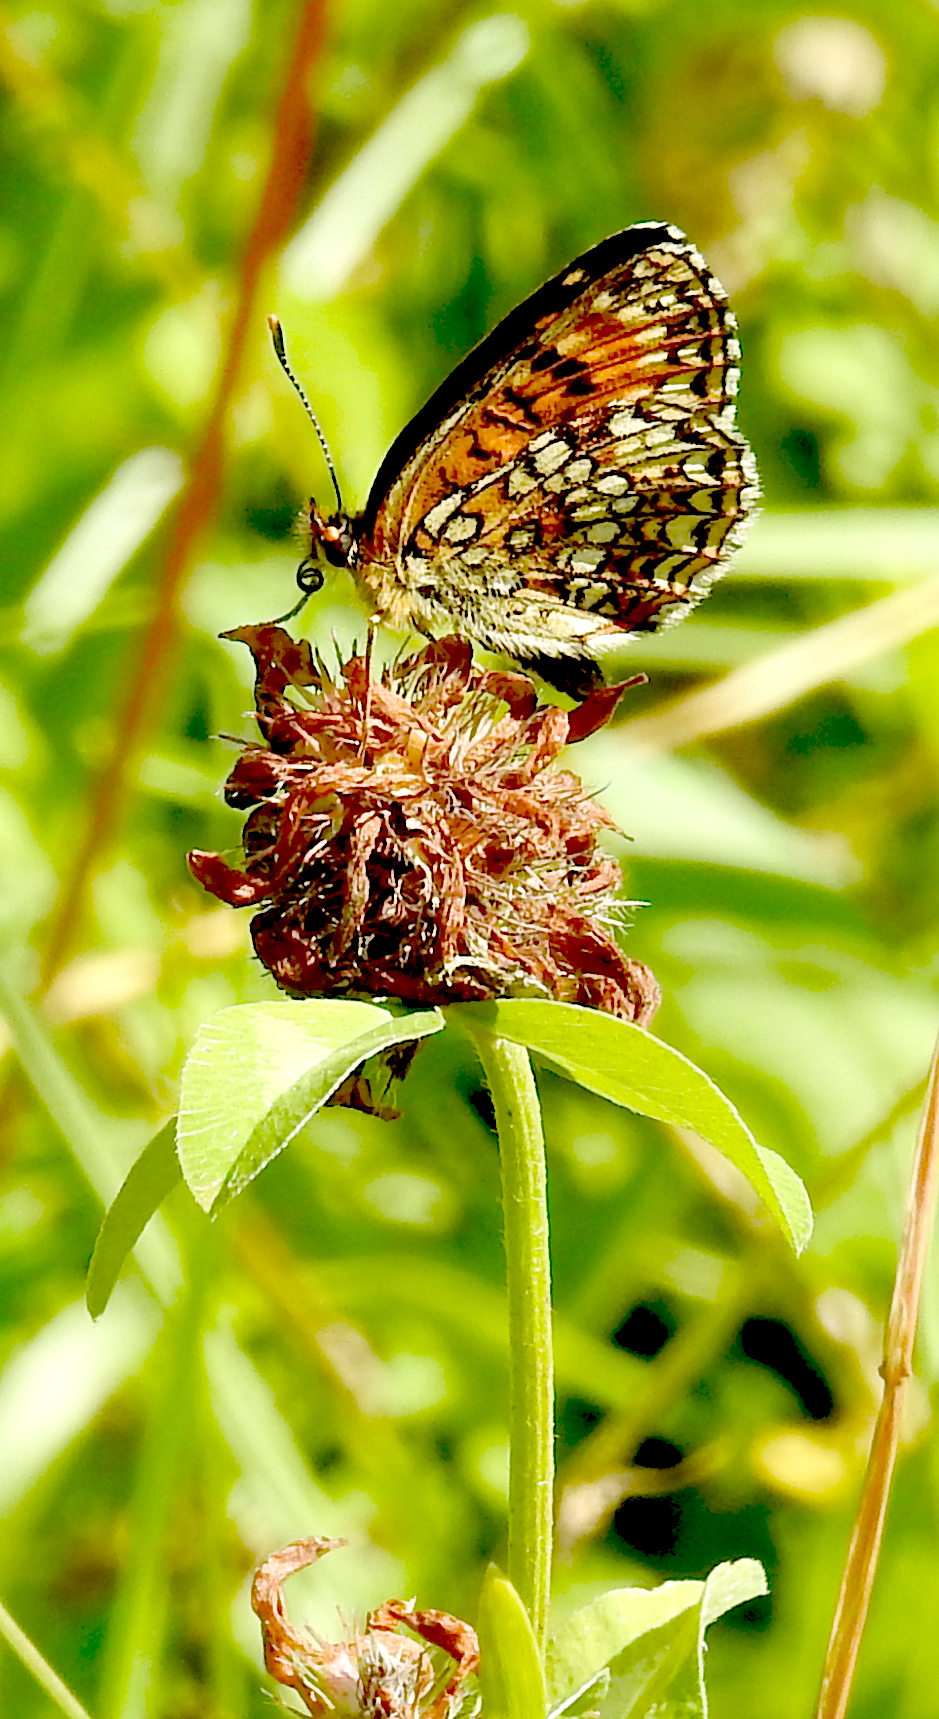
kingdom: Animalia
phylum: Arthropoda
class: Insecta
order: Lepidoptera
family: Nymphalidae
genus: Melitaea
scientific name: Melitaea diamina
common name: False heath fritillary
